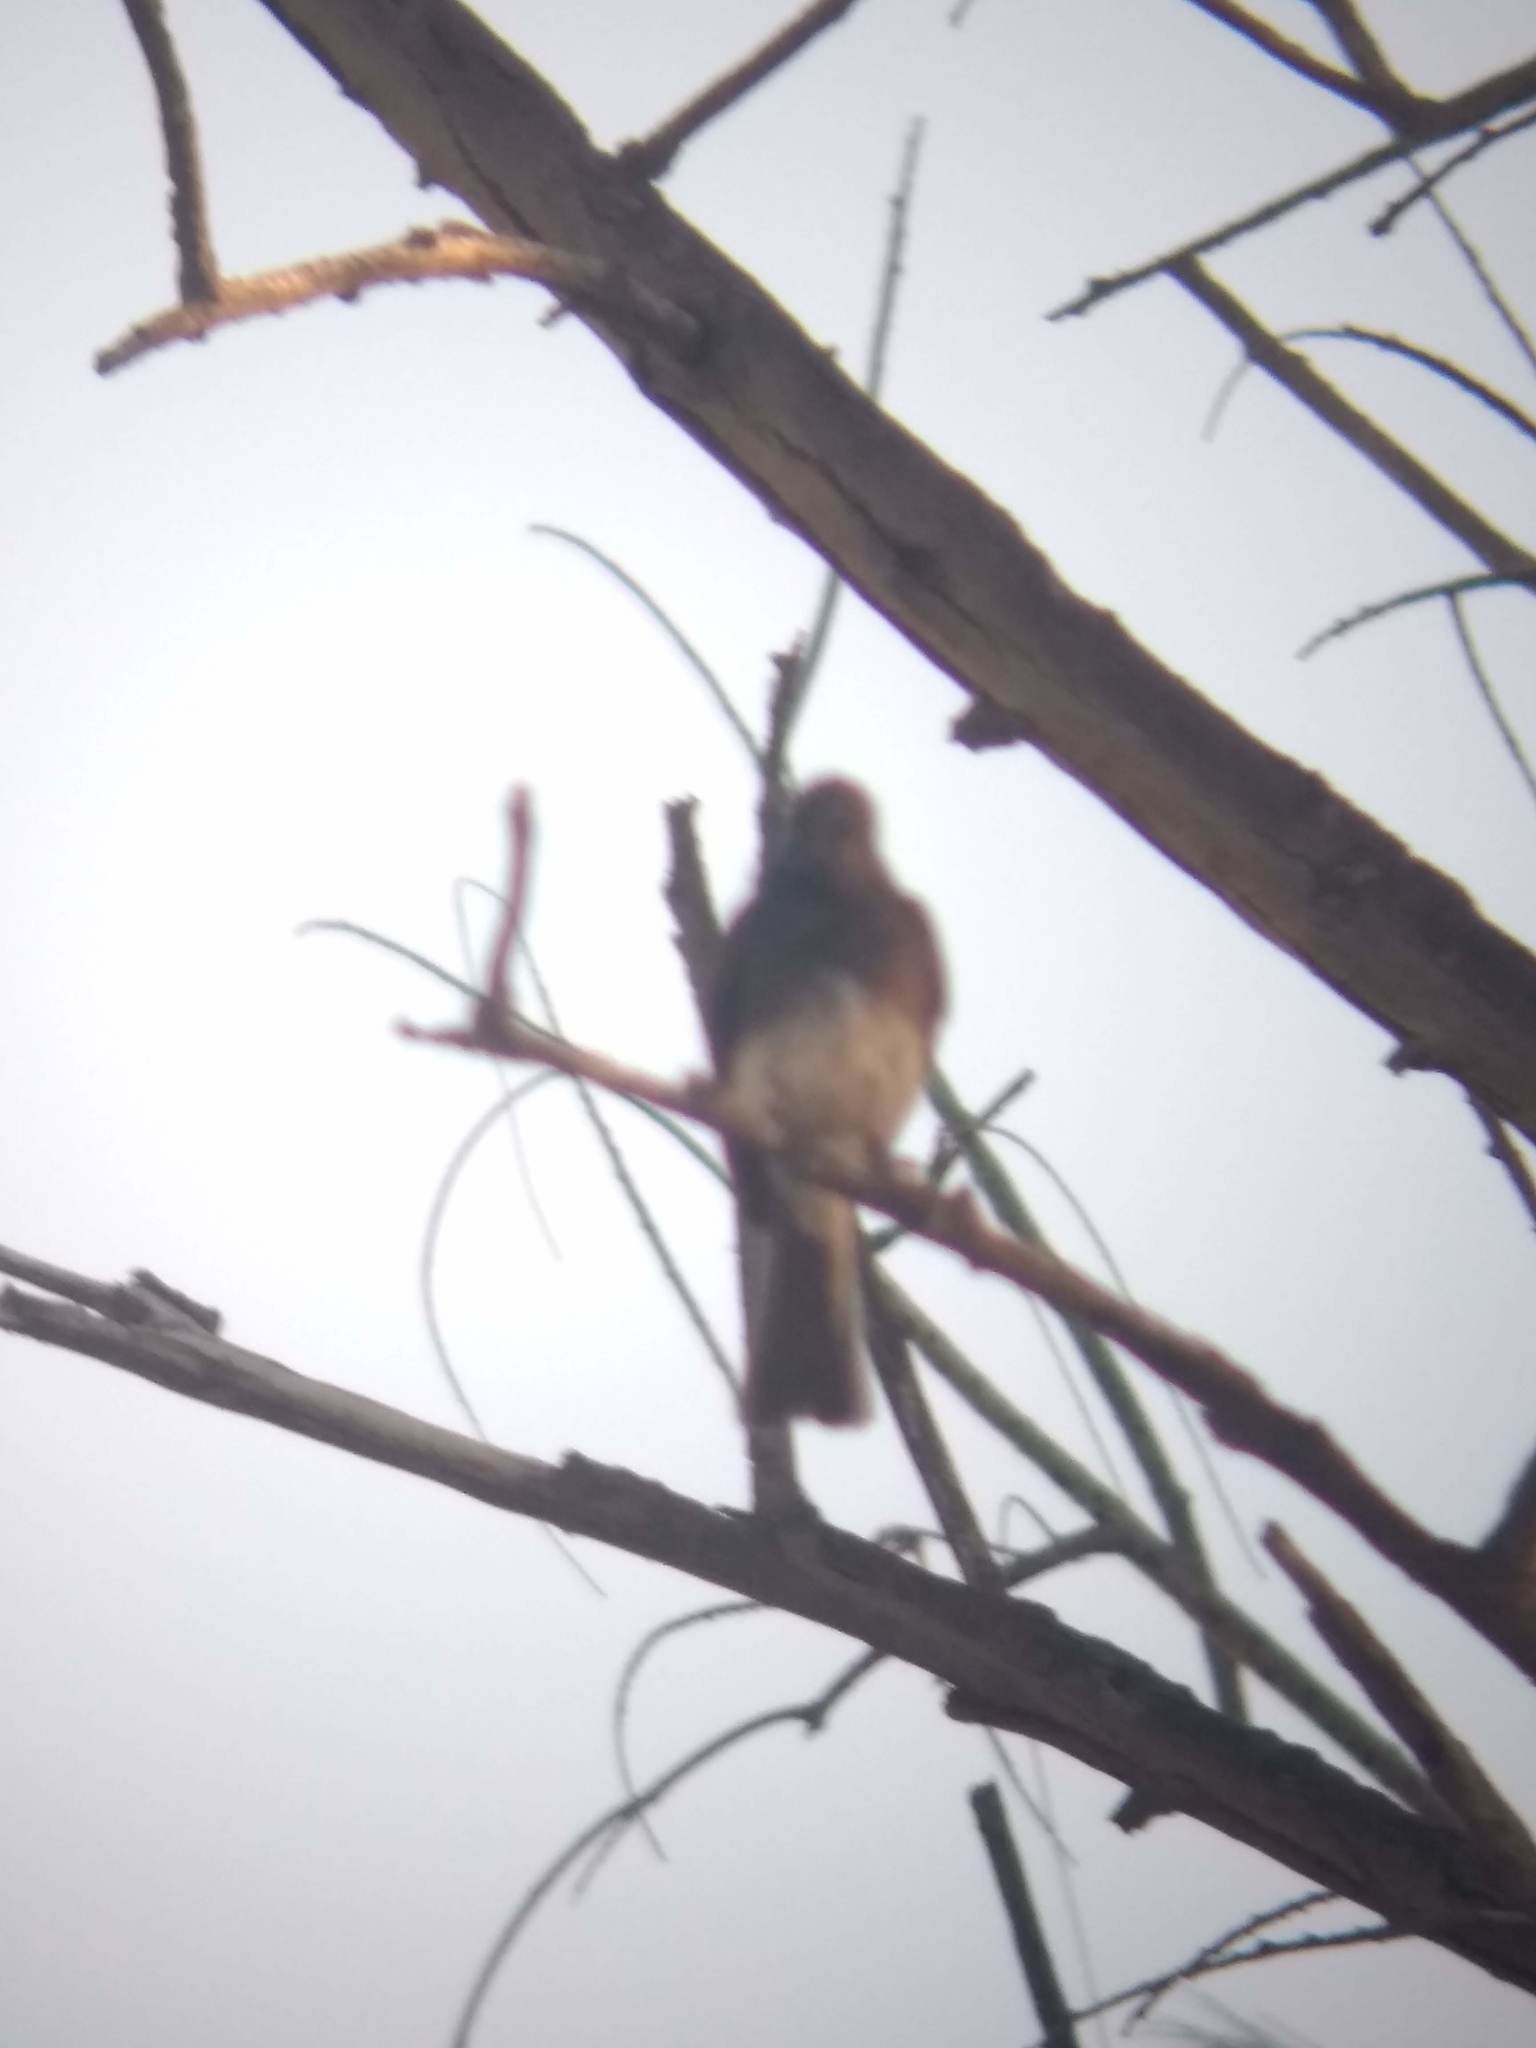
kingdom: Animalia
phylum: Chordata
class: Aves
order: Passeriformes
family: Tyrannidae
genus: Sayornis
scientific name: Sayornis nigricans
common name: Black phoebe
